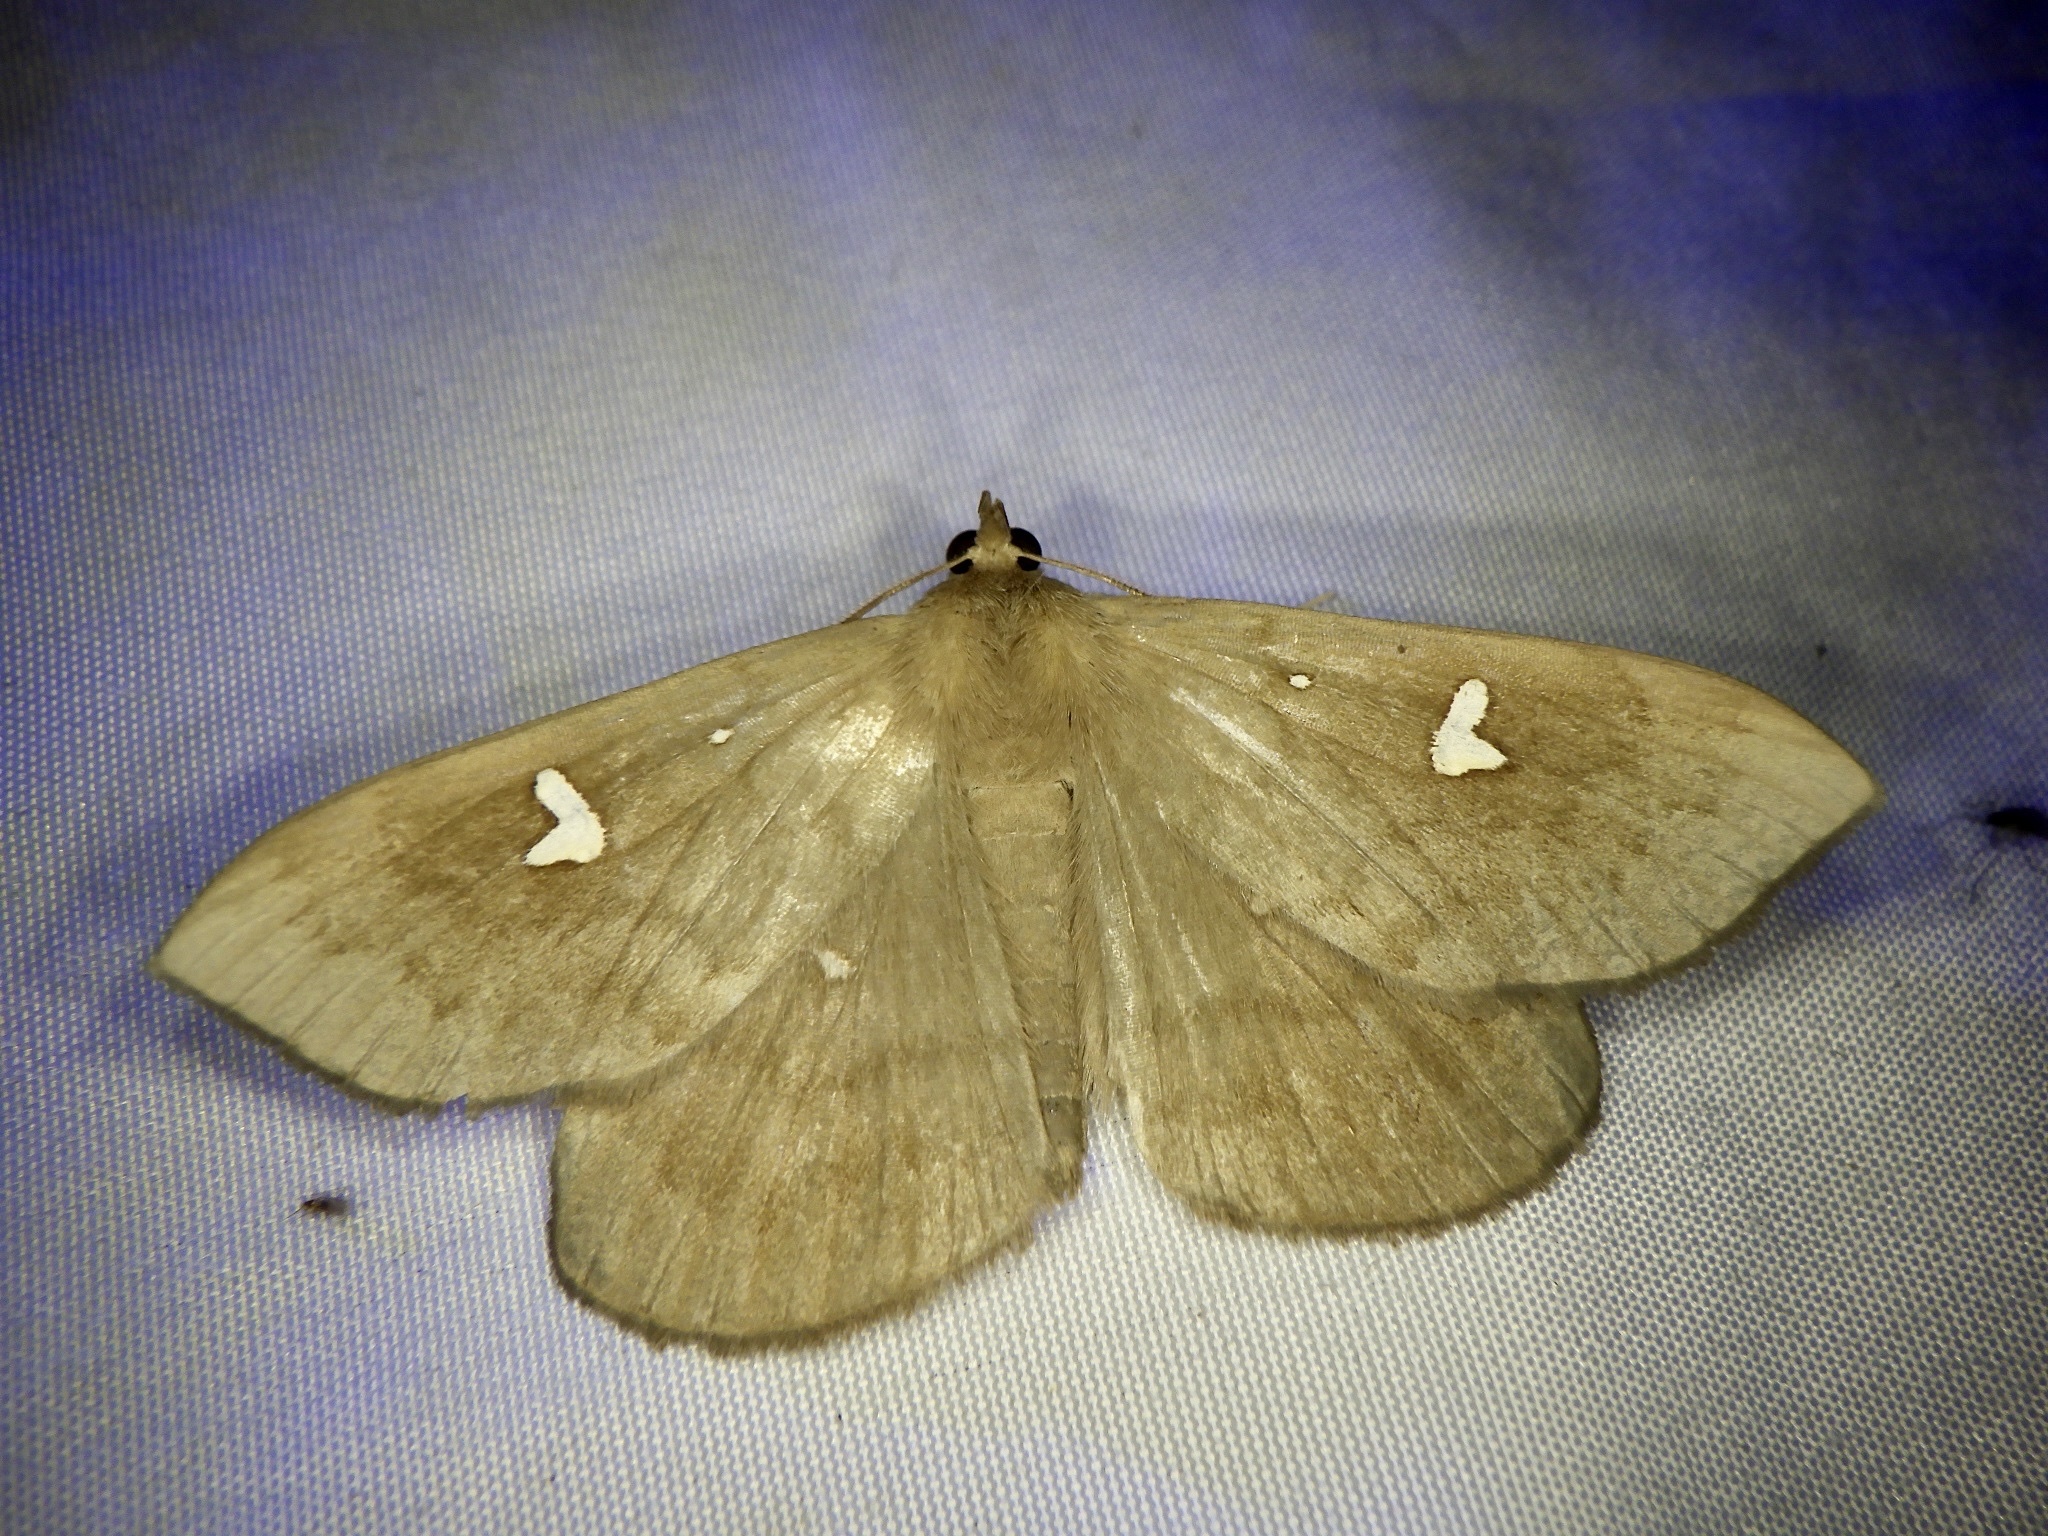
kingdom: Animalia
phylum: Arthropoda
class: Insecta
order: Lepidoptera
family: Erebidae
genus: Edessena
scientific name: Edessena hamada
